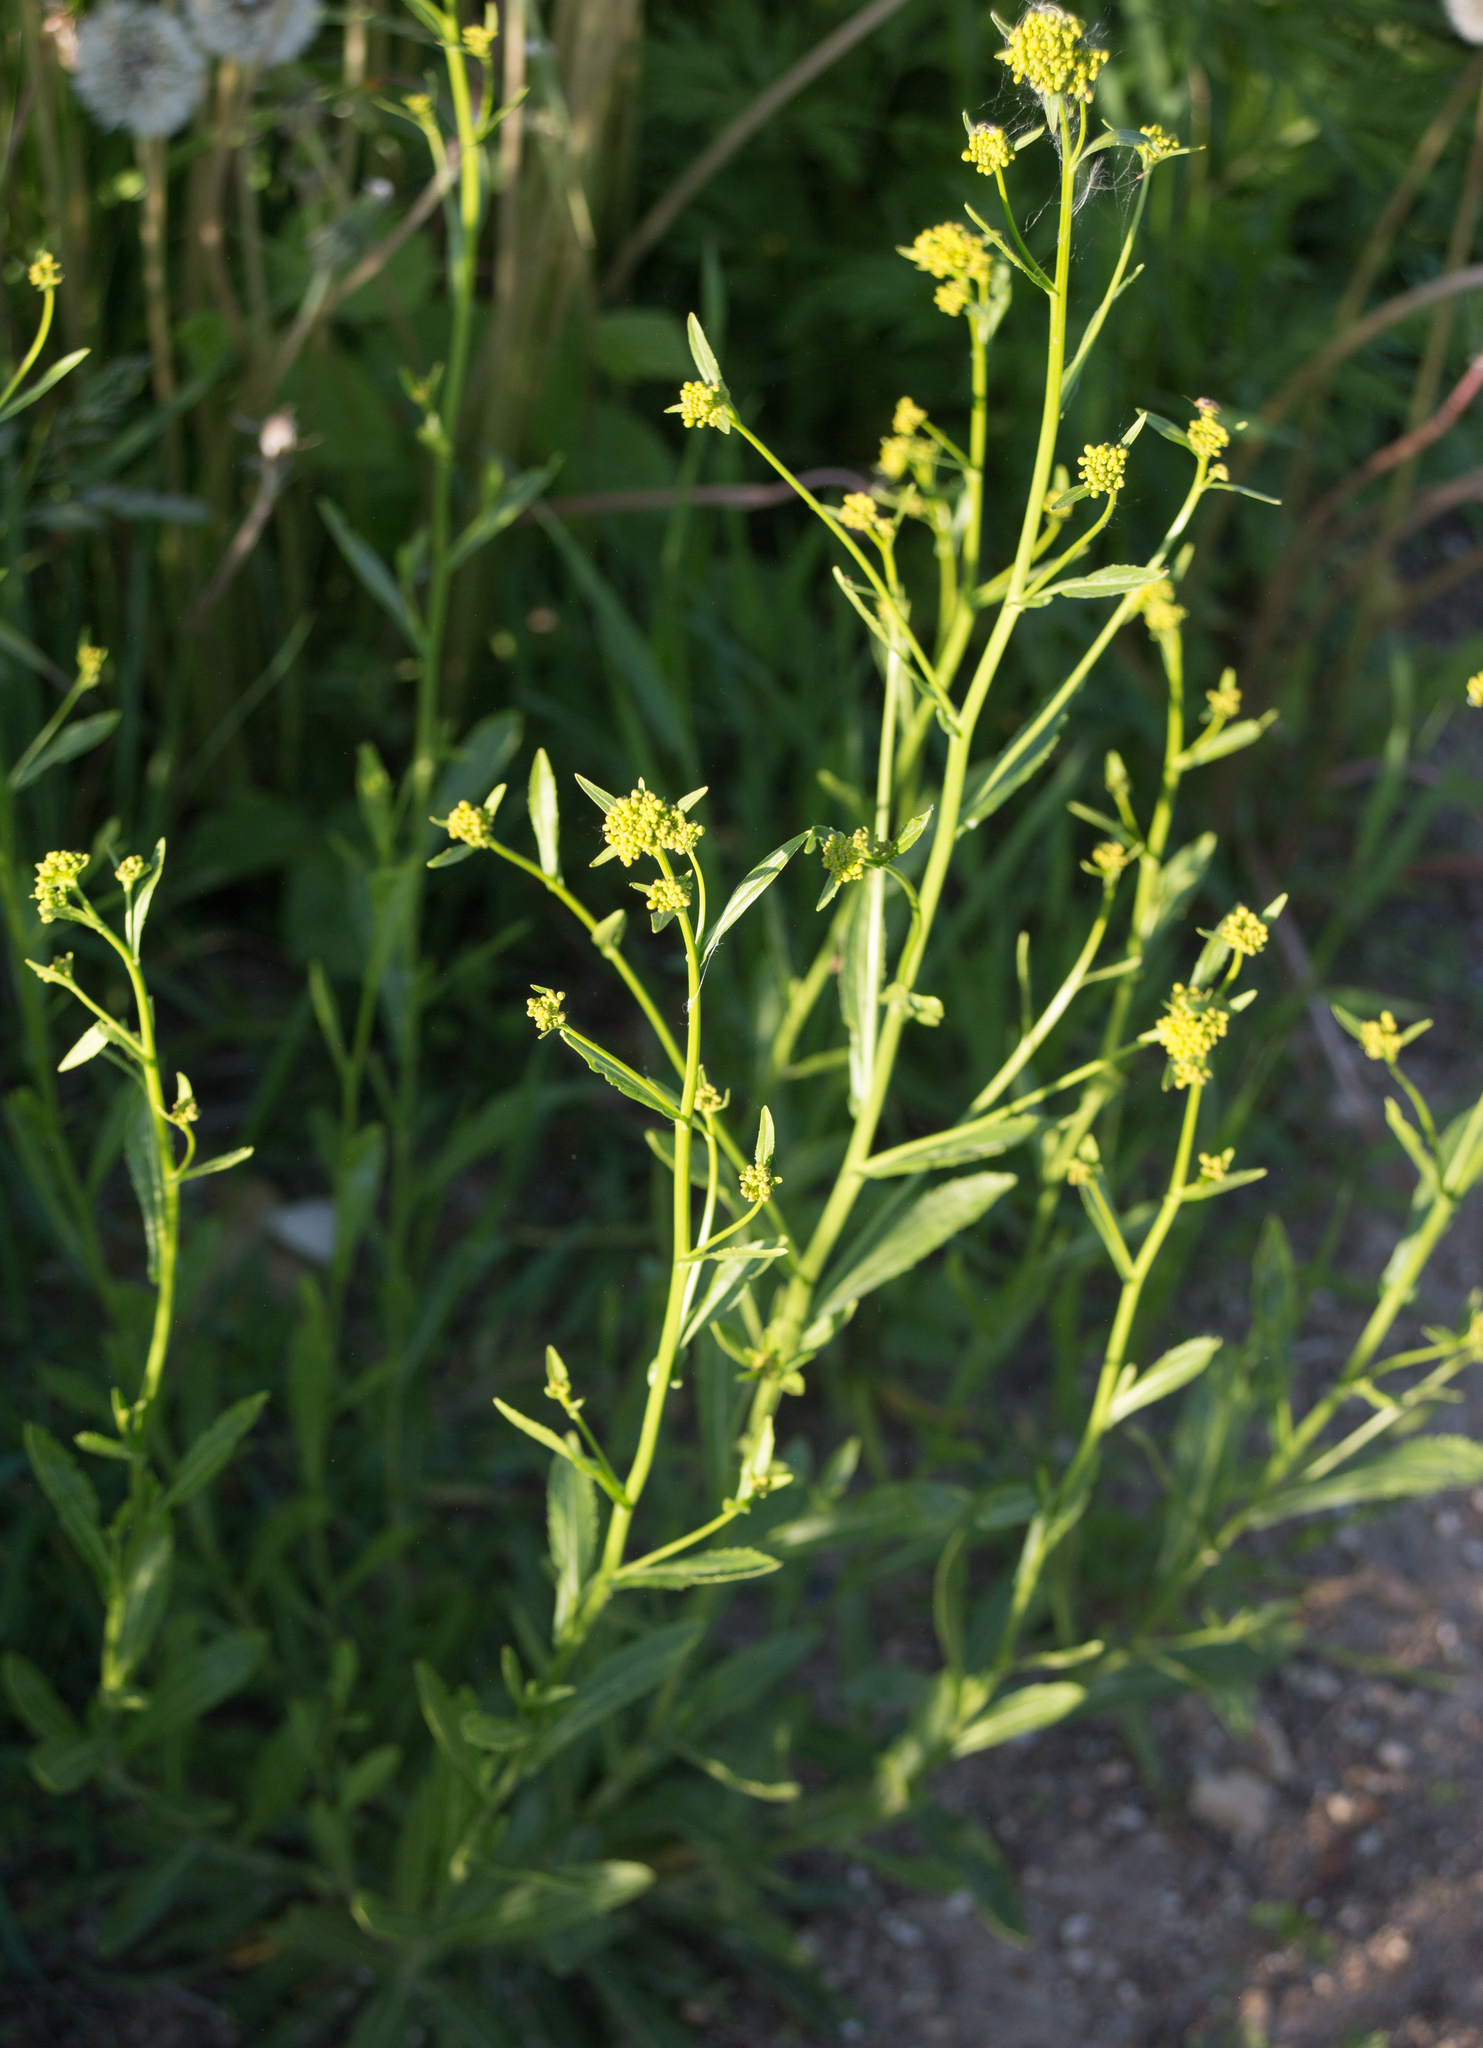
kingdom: Plantae
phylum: Tracheophyta
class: Magnoliopsida
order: Brassicales
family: Brassicaceae
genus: Rorippa
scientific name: Rorippa austriaca
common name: Austrian yellow-cress
